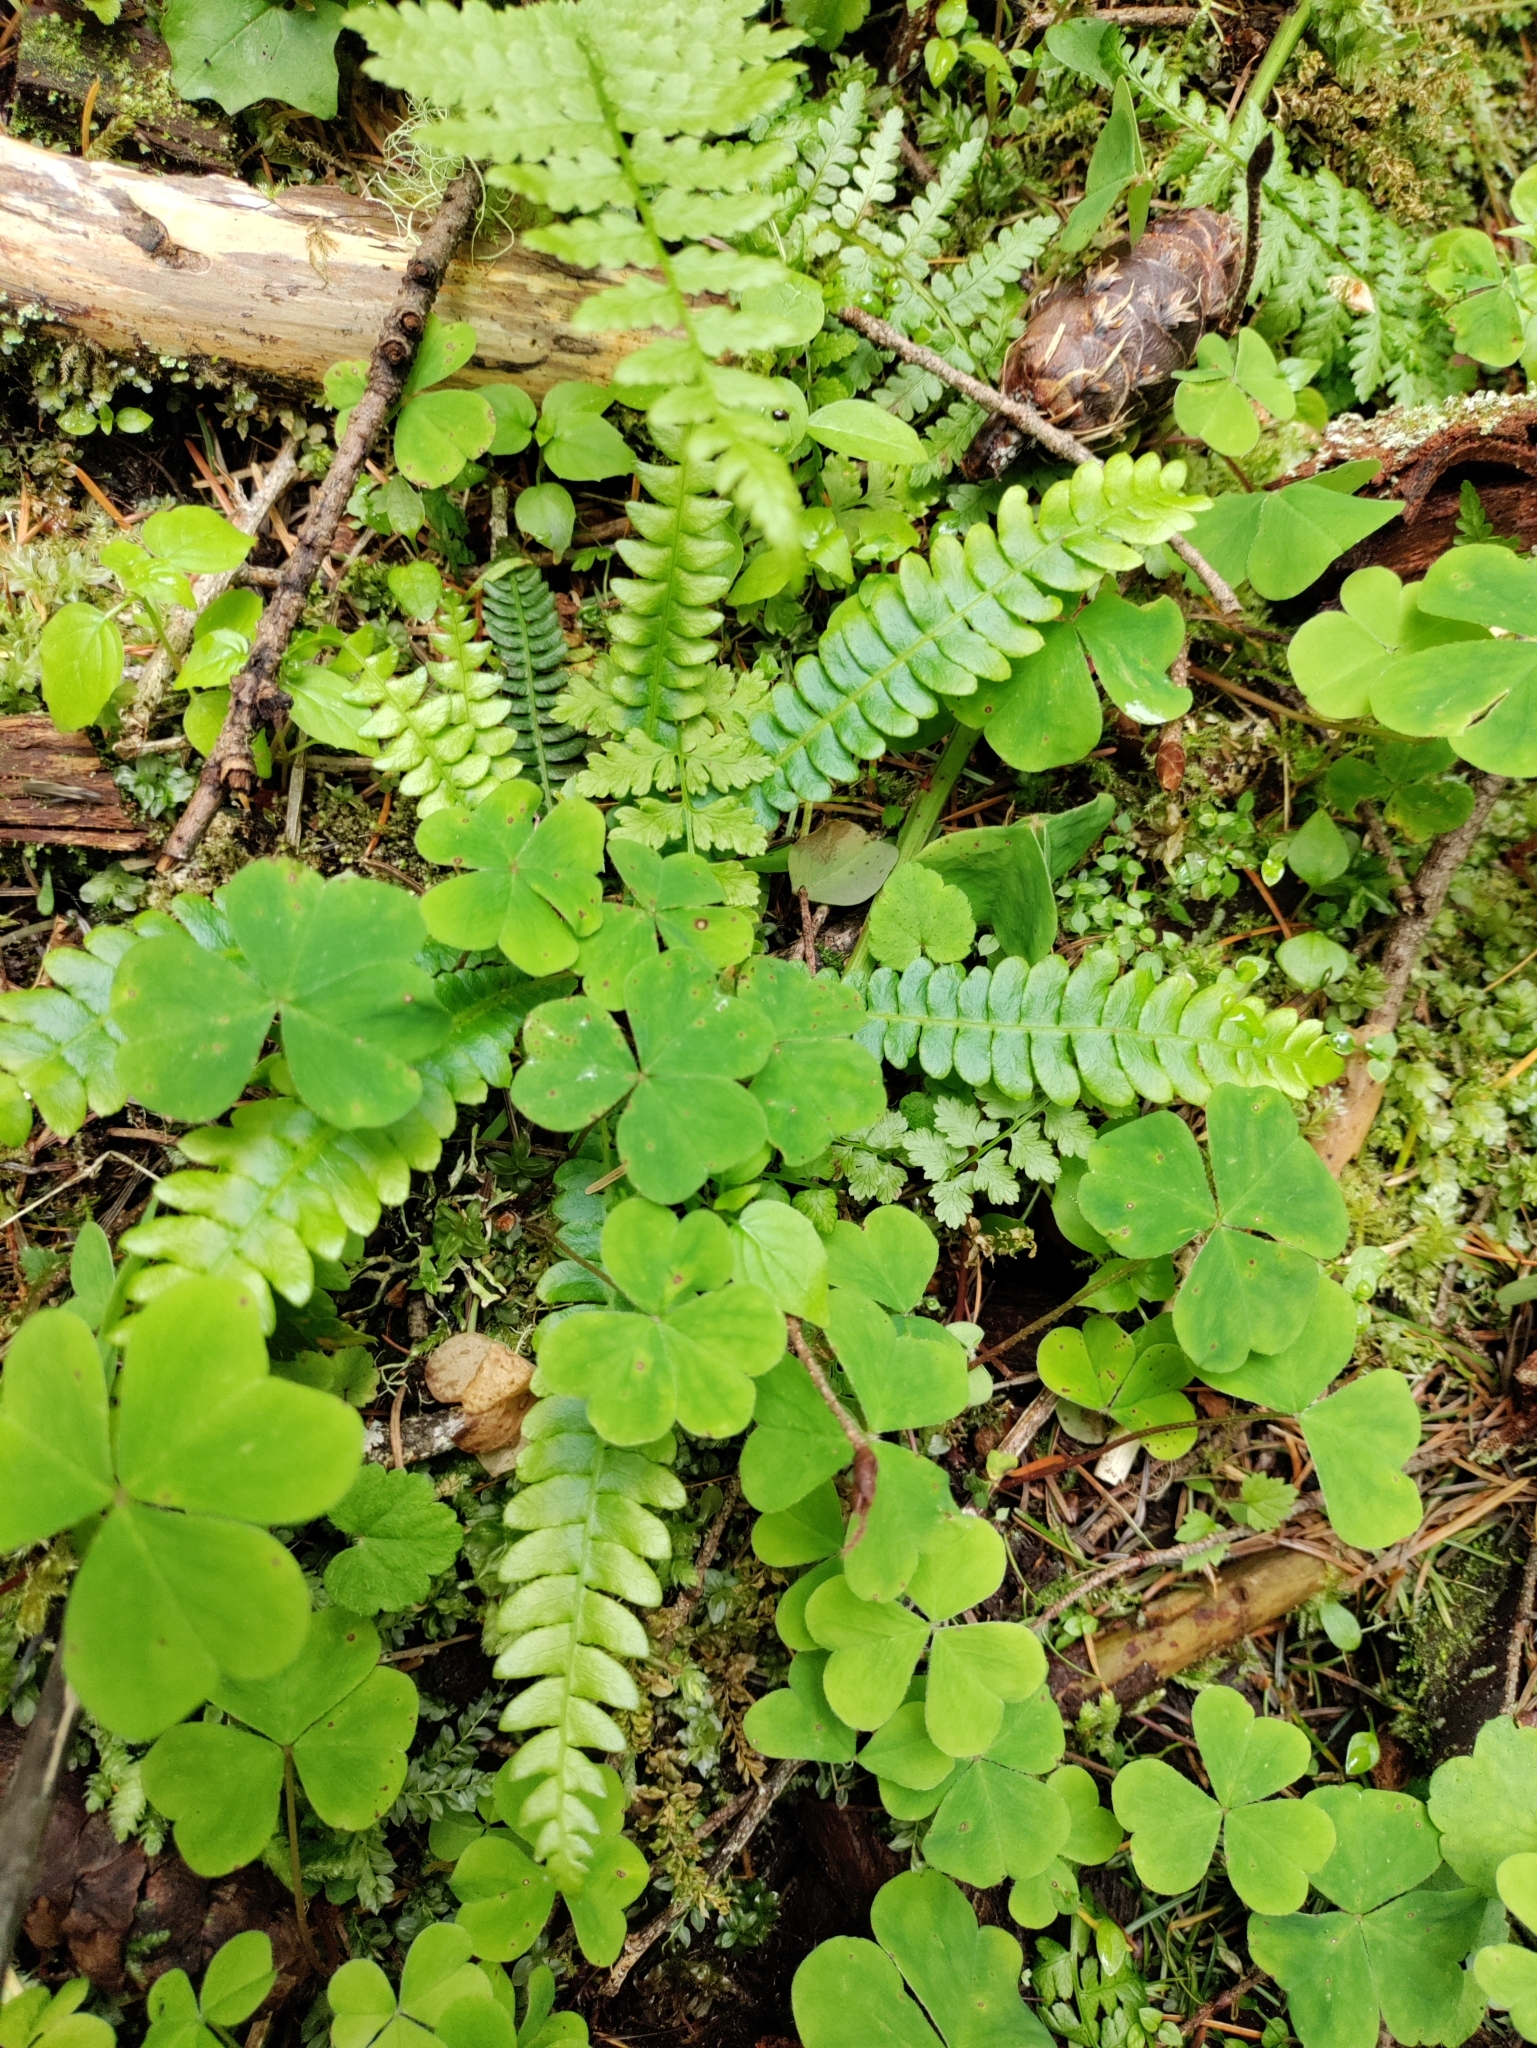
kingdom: Plantae
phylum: Tracheophyta
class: Polypodiopsida
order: Polypodiales
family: Blechnaceae
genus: Struthiopteris
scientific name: Struthiopteris spicant
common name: Deer fern
